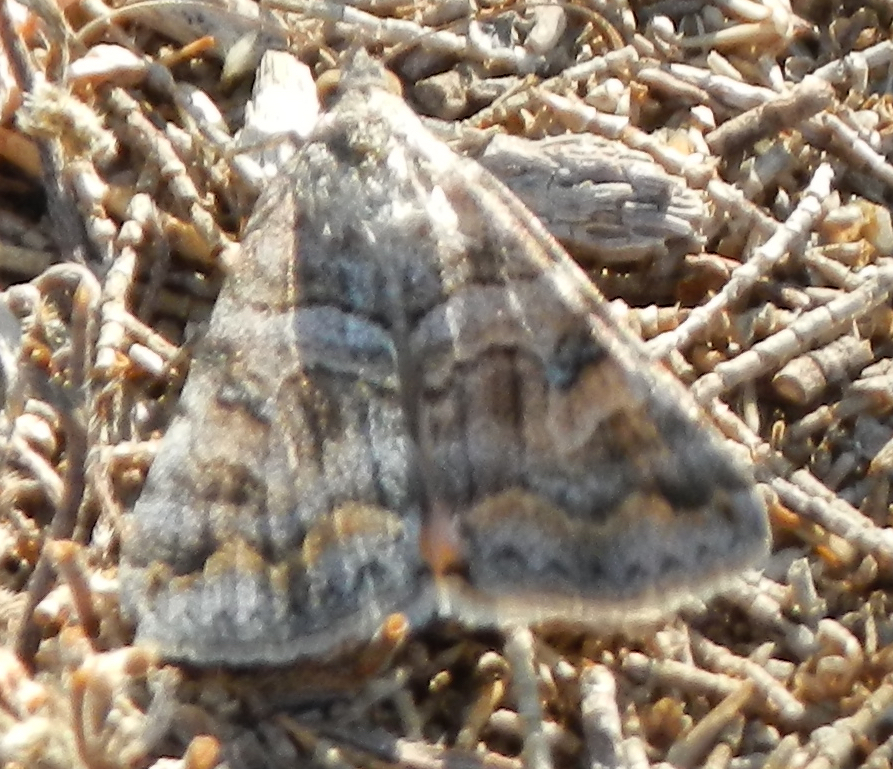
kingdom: Animalia
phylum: Arthropoda
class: Insecta
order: Lepidoptera
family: Erebidae
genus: Bulia
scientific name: Bulia deducta
